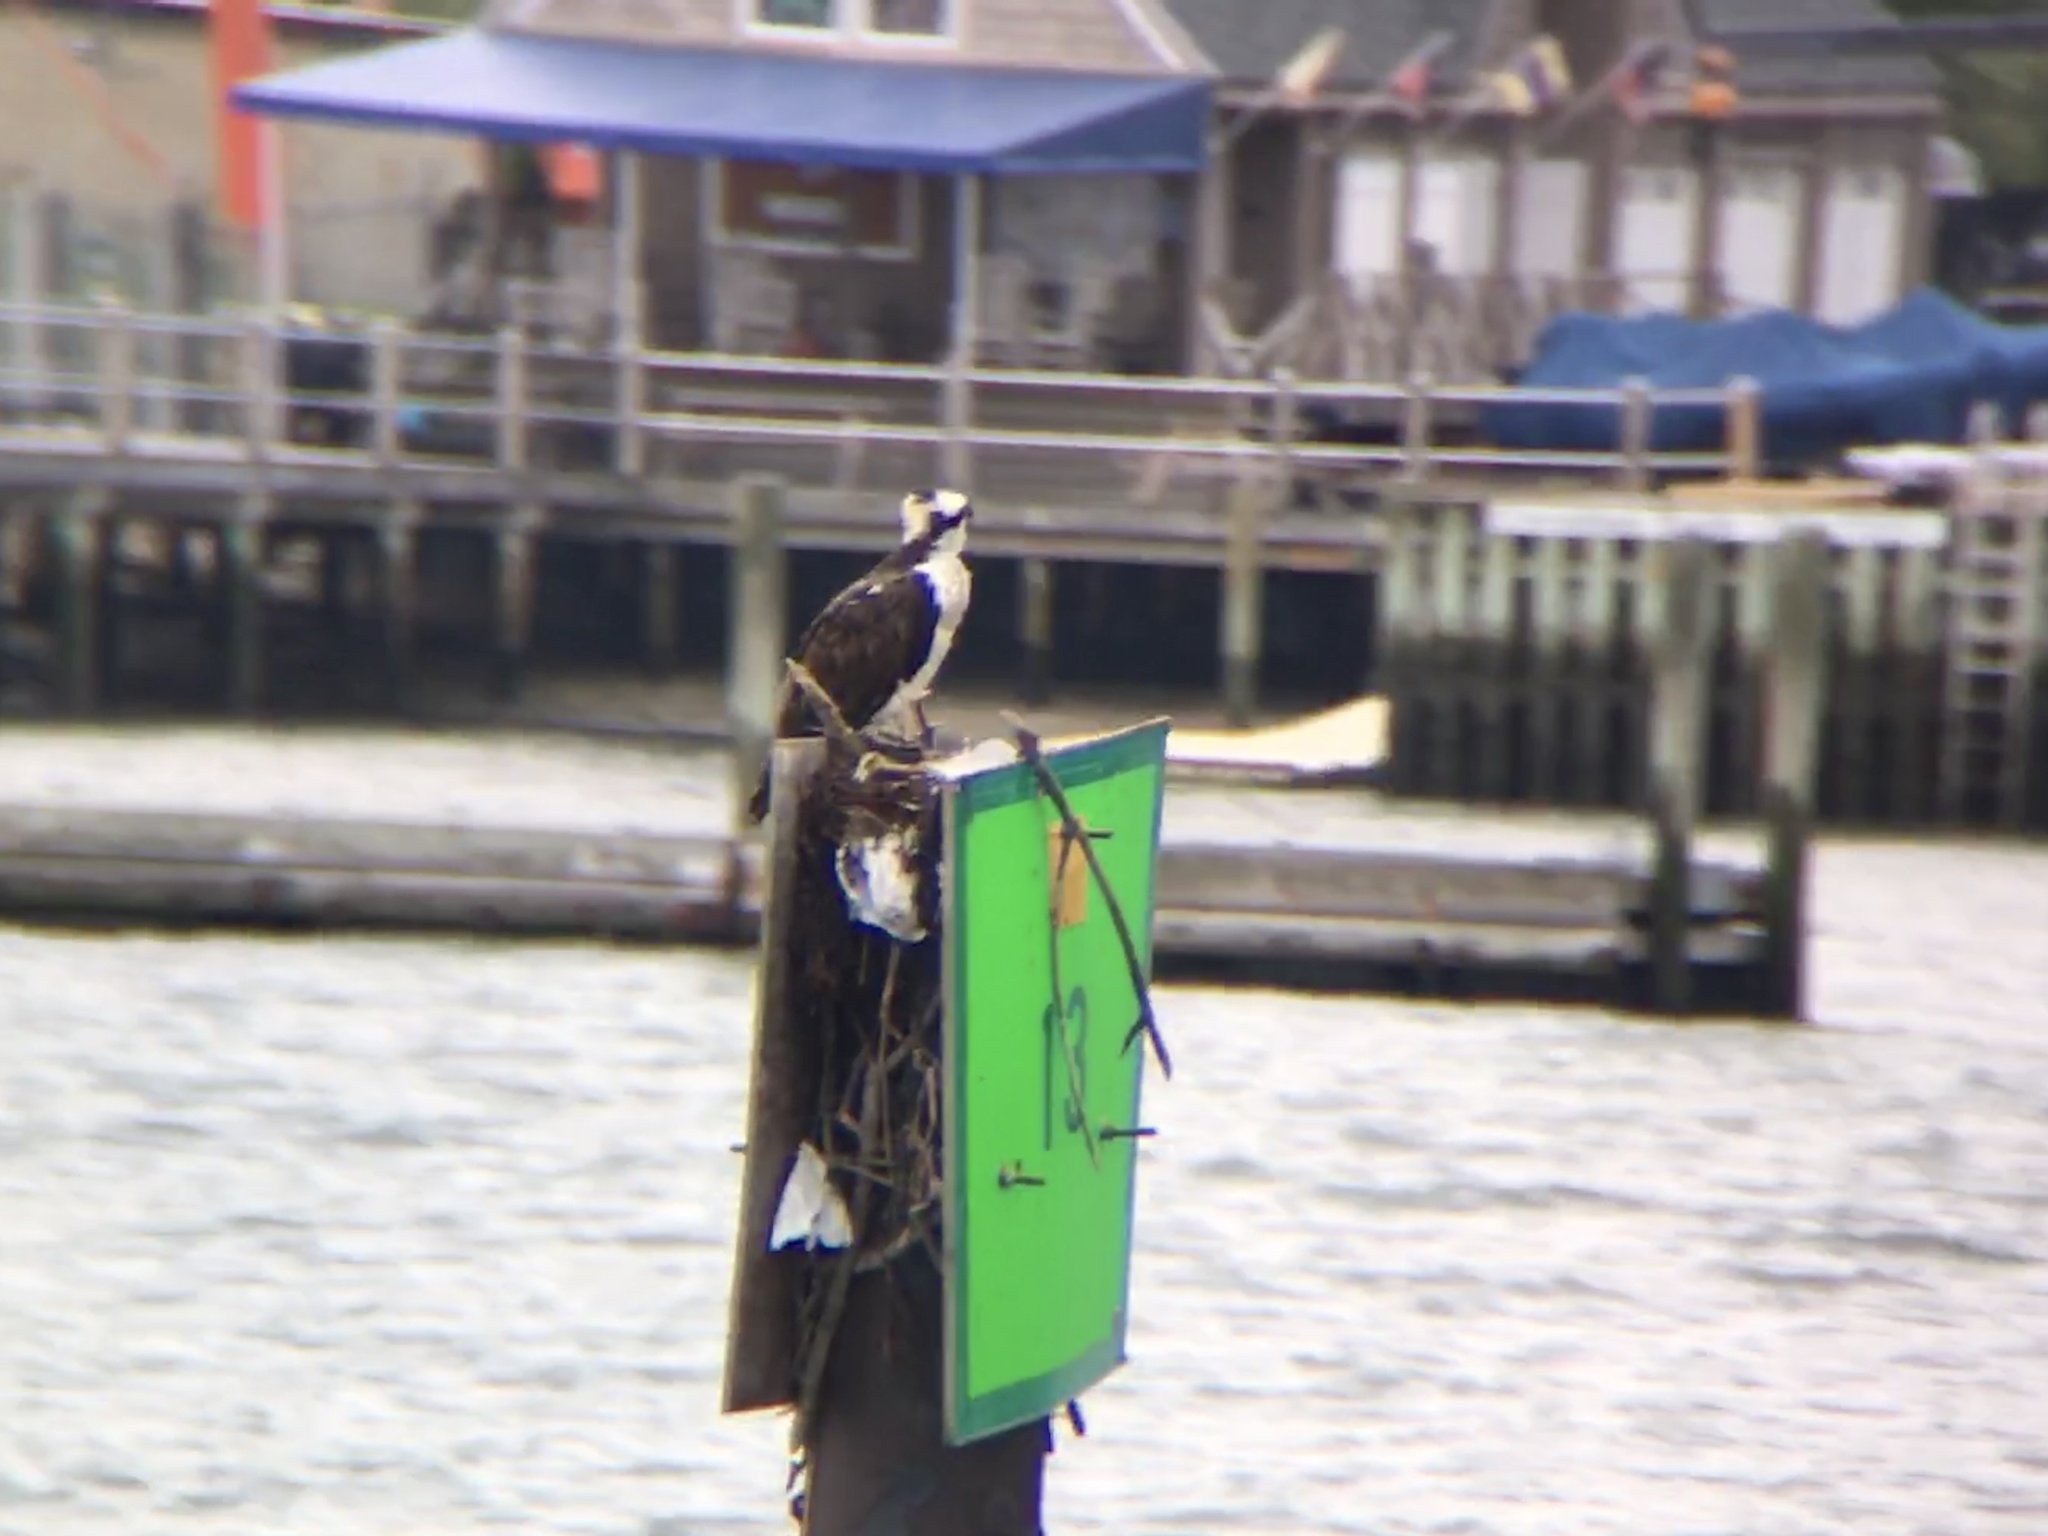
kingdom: Animalia
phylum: Chordata
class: Aves
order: Accipitriformes
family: Pandionidae
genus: Pandion
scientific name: Pandion haliaetus
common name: Osprey
